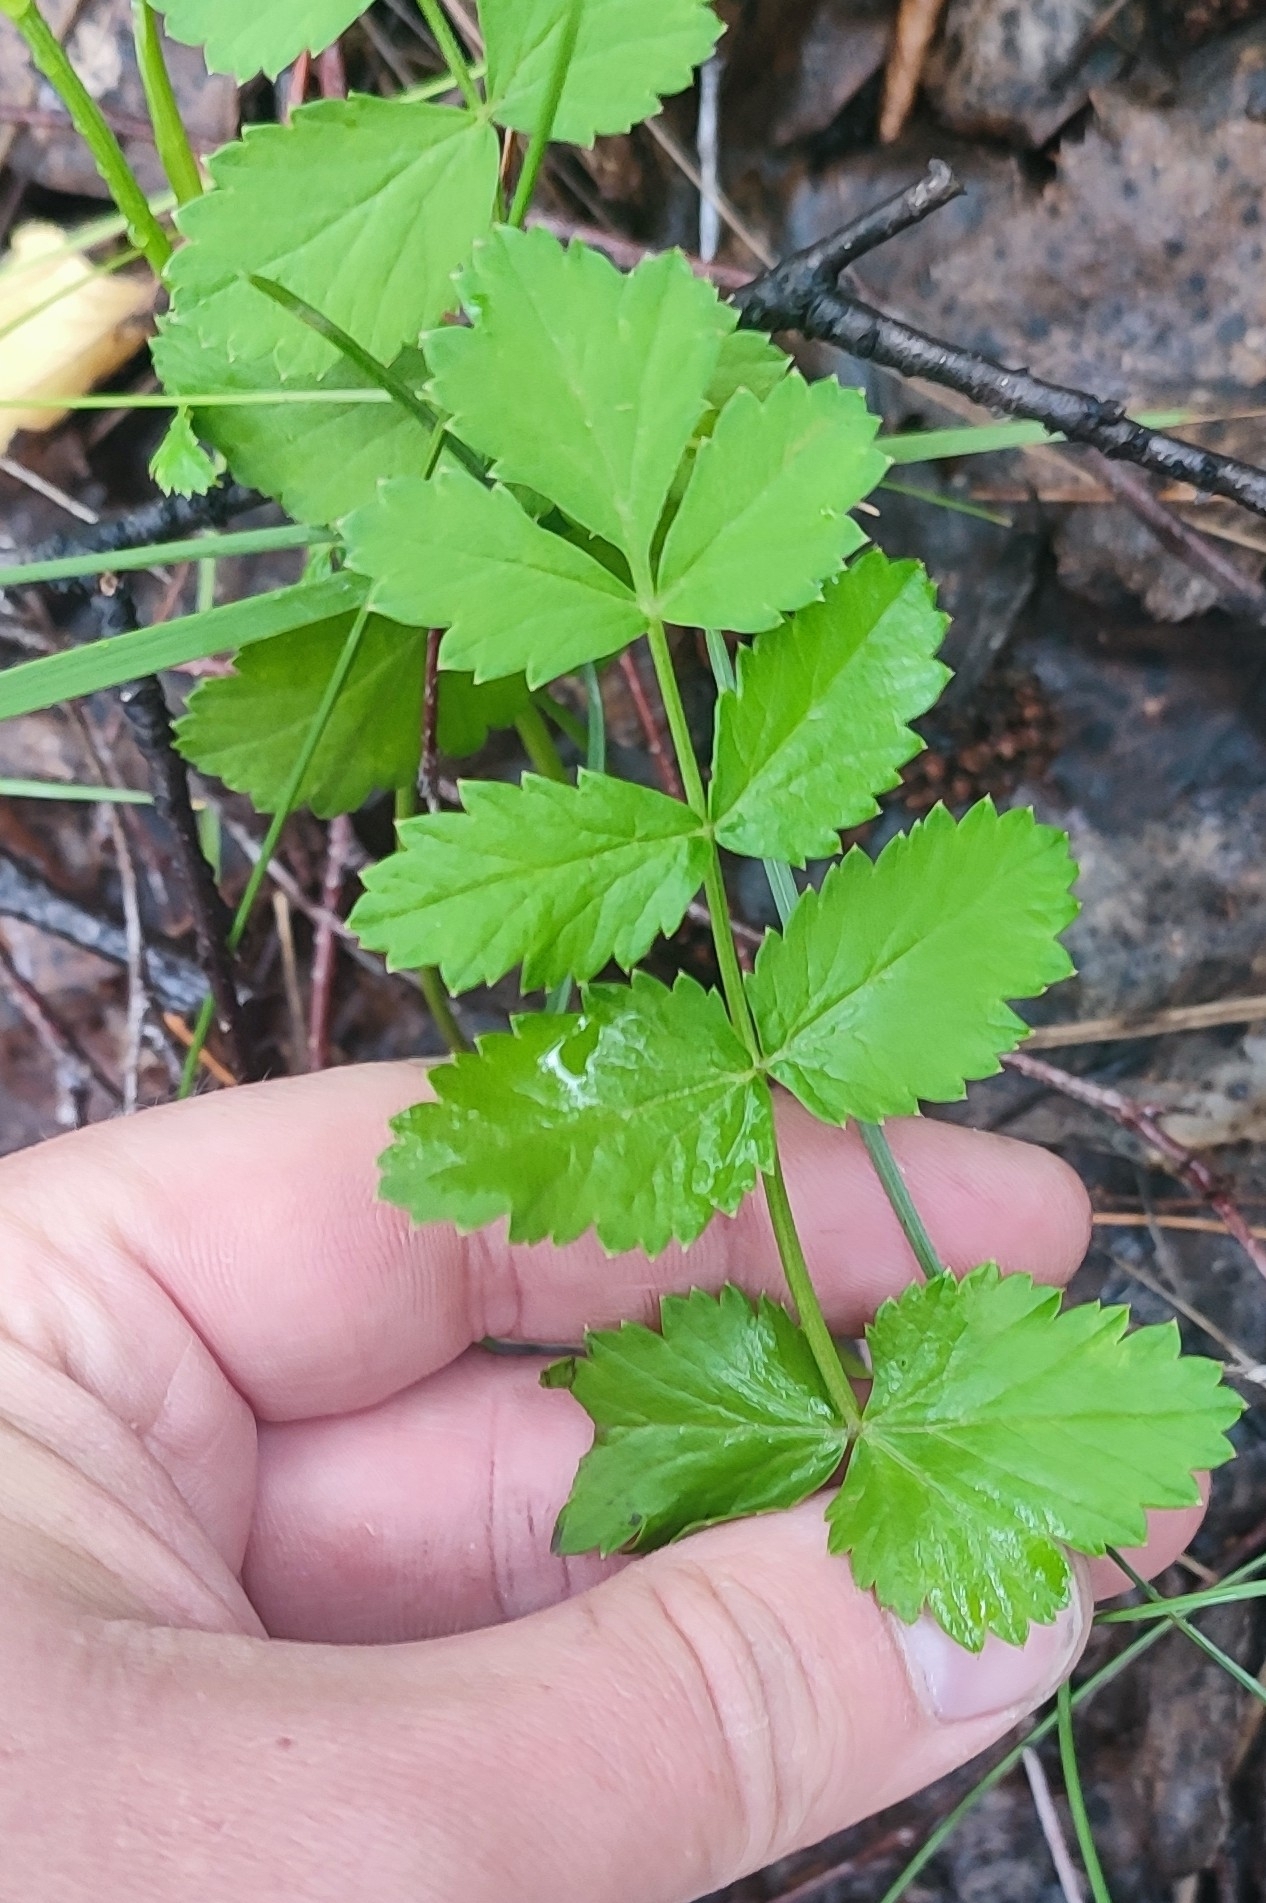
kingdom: Plantae
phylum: Tracheophyta
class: Magnoliopsida
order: Apiales
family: Apiaceae
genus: Pimpinella
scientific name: Pimpinella saxifraga
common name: Burnet-saxifrage
